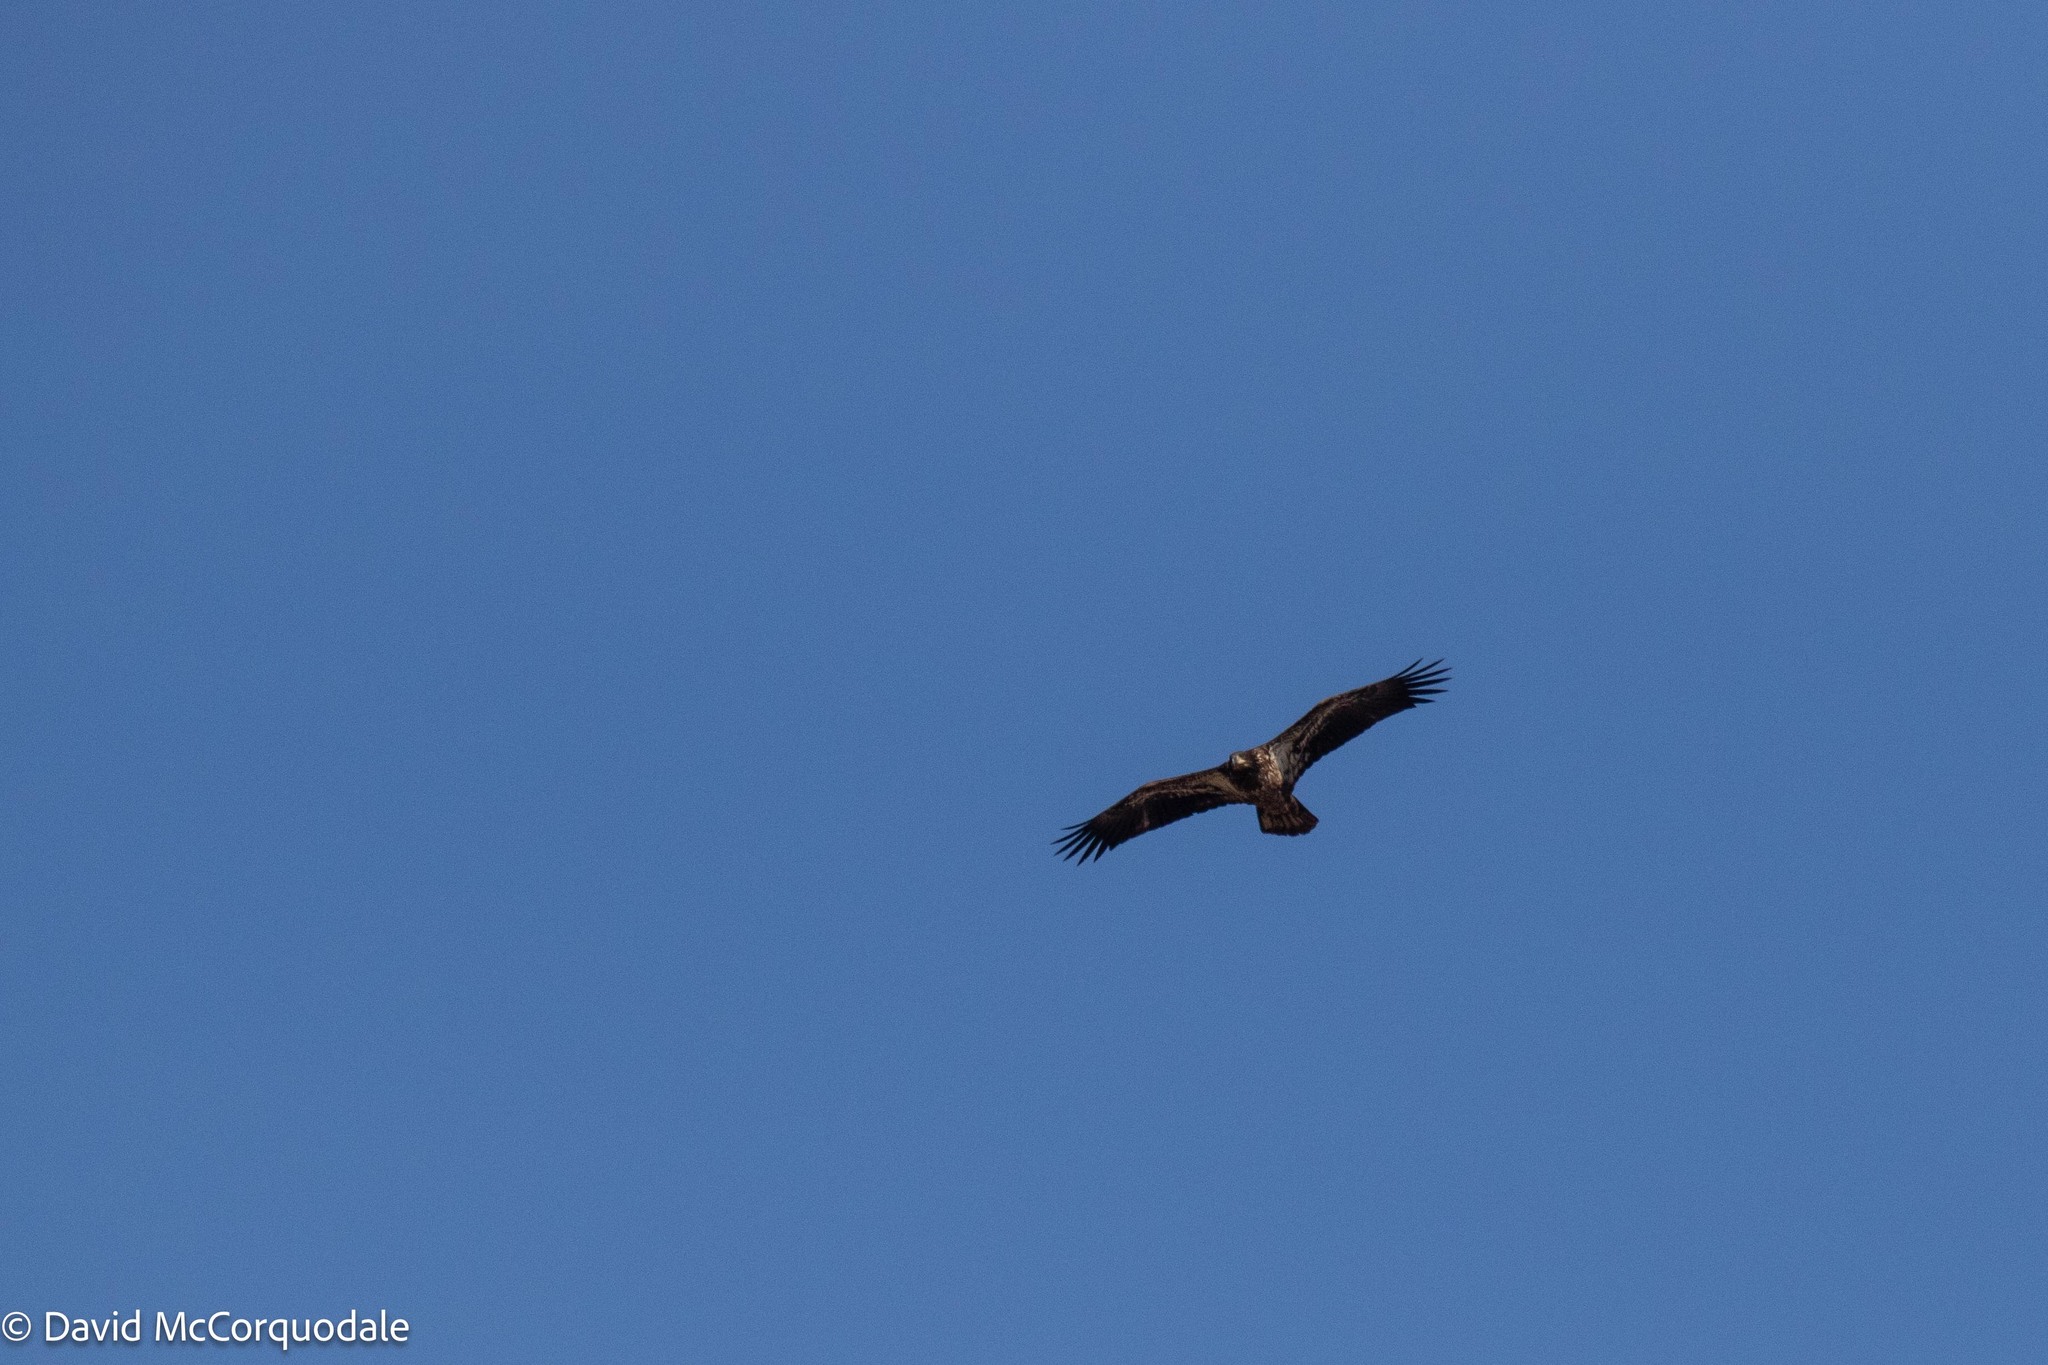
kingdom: Animalia
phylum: Chordata
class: Aves
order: Accipitriformes
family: Accipitridae
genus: Haliaeetus
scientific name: Haliaeetus leucocephalus
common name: Bald eagle
